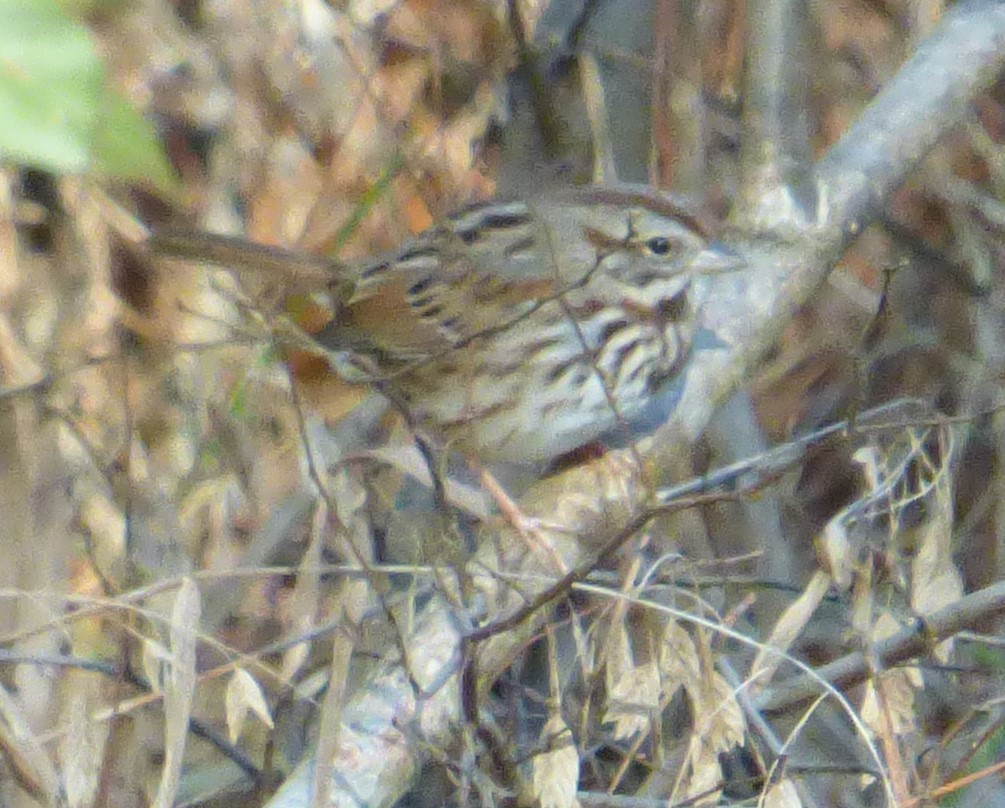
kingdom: Animalia
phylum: Chordata
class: Aves
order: Passeriformes
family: Passerellidae
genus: Melospiza
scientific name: Melospiza melodia
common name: Song sparrow
